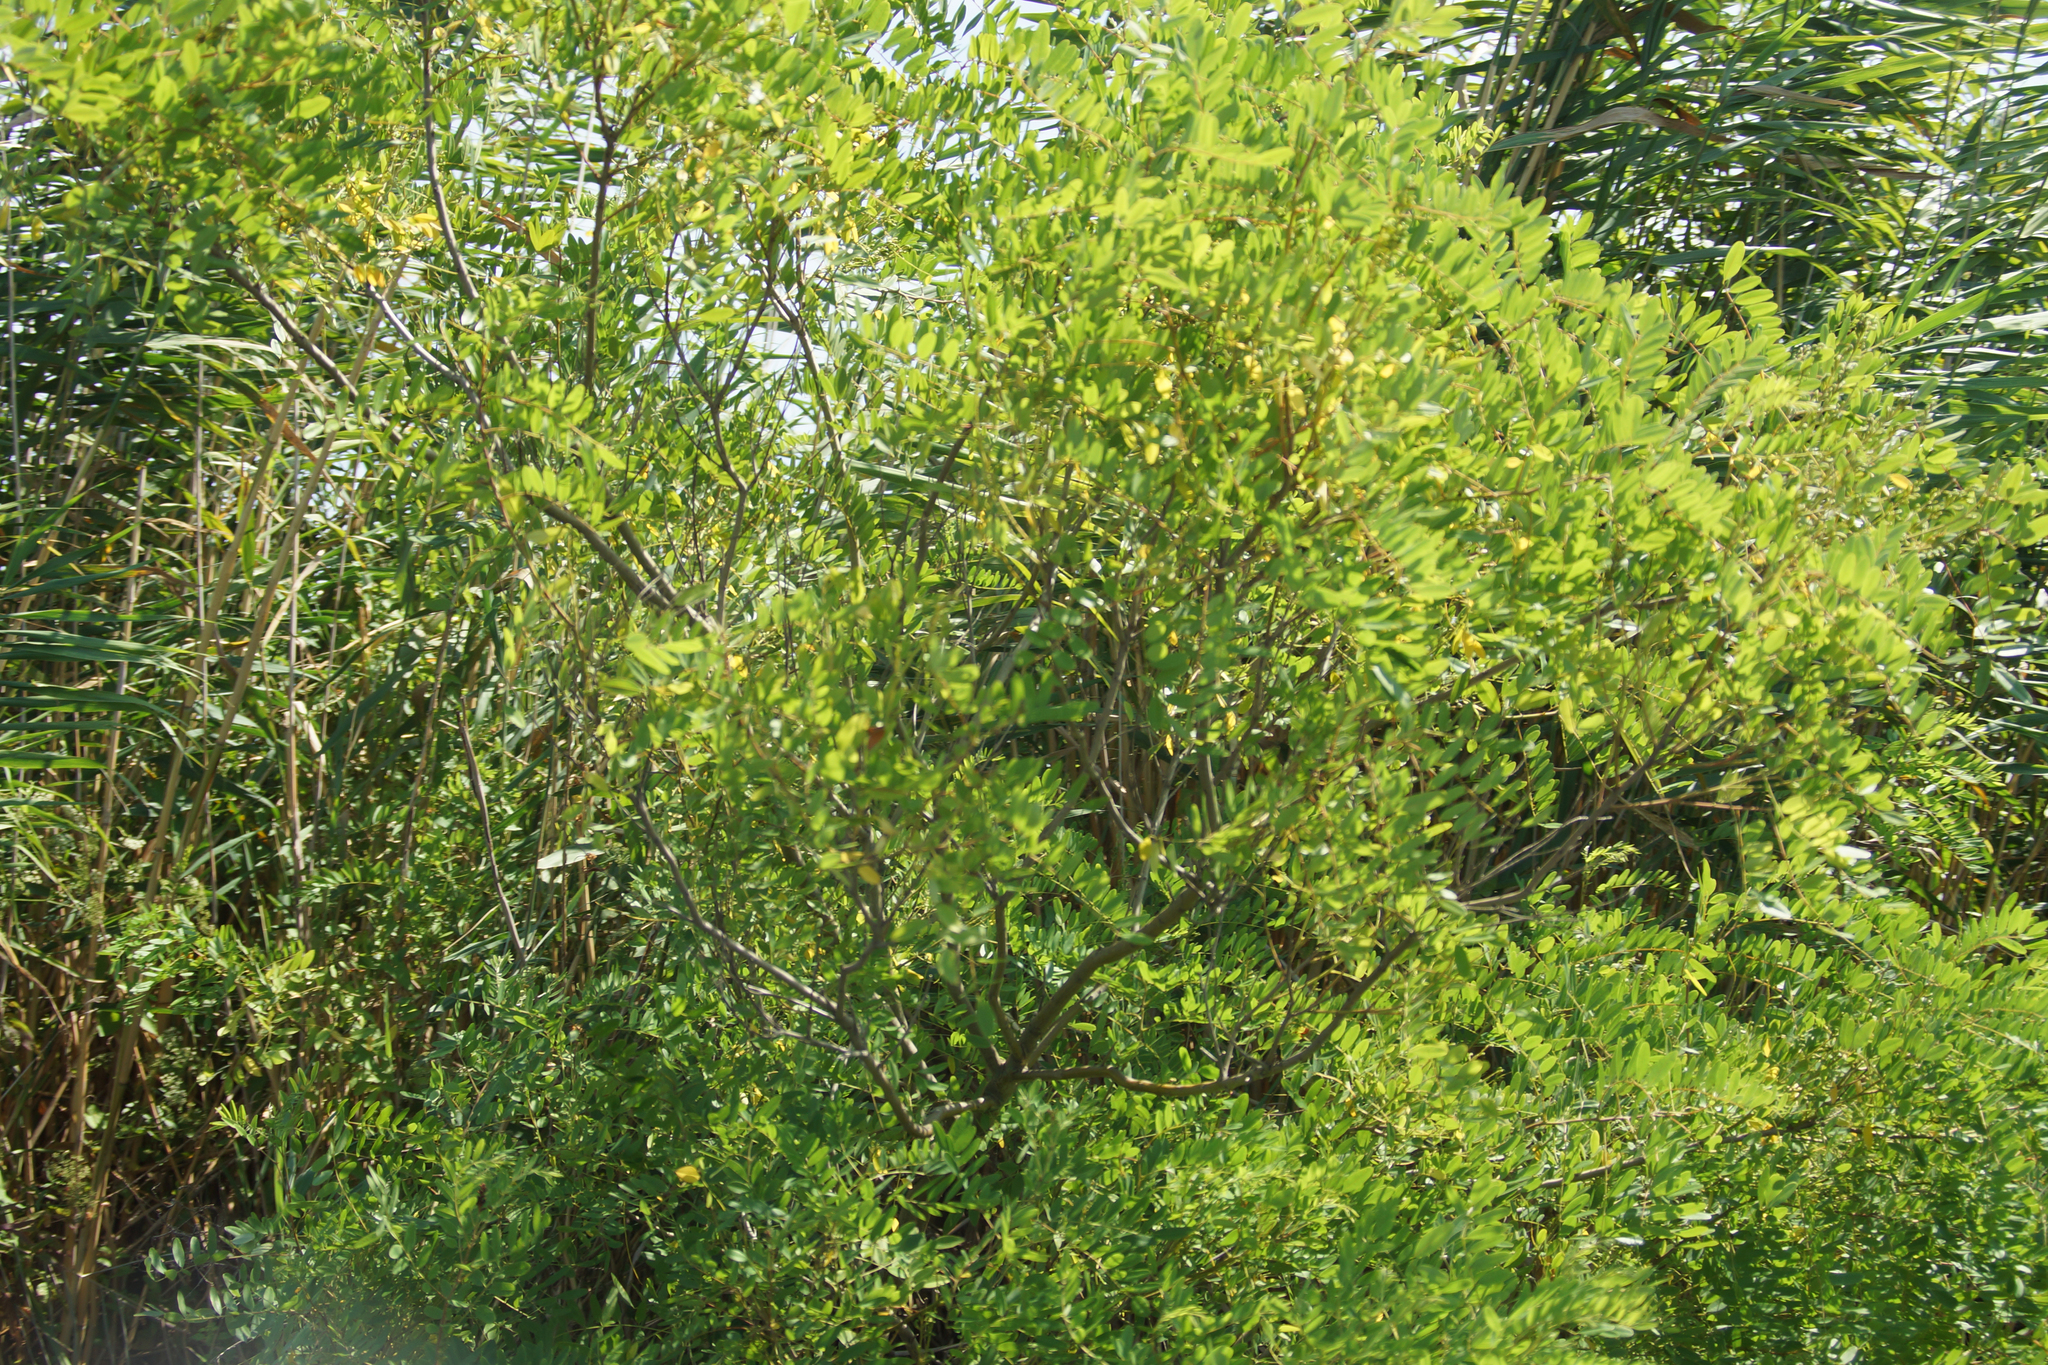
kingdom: Plantae
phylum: Tracheophyta
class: Magnoliopsida
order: Fabales
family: Fabaceae
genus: Amorpha
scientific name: Amorpha fruticosa
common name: False indigo
